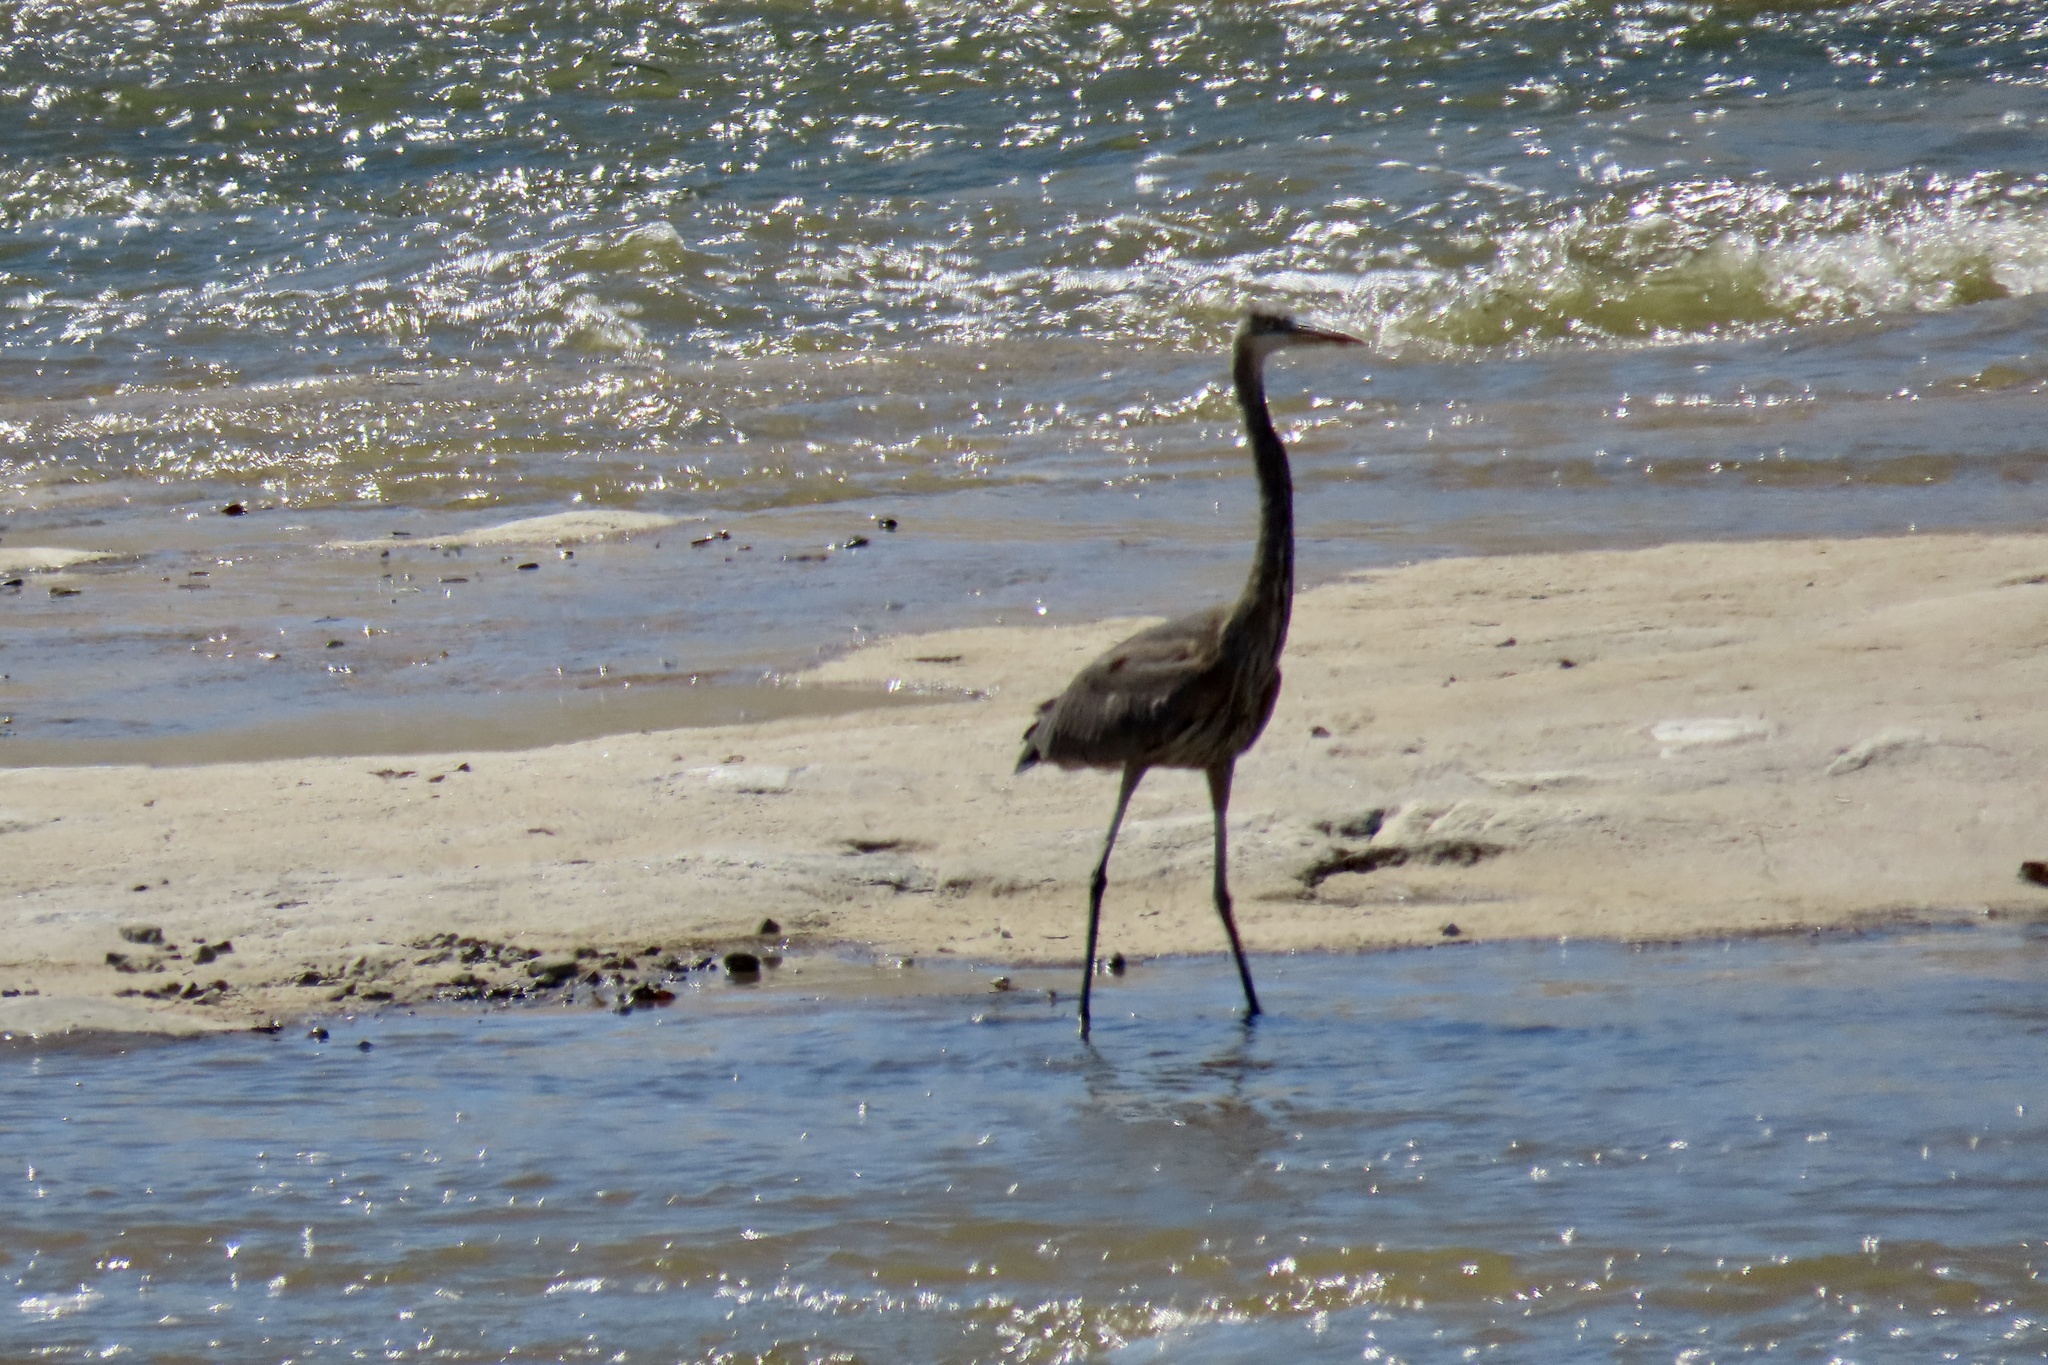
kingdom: Animalia
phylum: Chordata
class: Aves
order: Pelecaniformes
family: Ardeidae
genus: Ardea
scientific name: Ardea herodias
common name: Great blue heron
